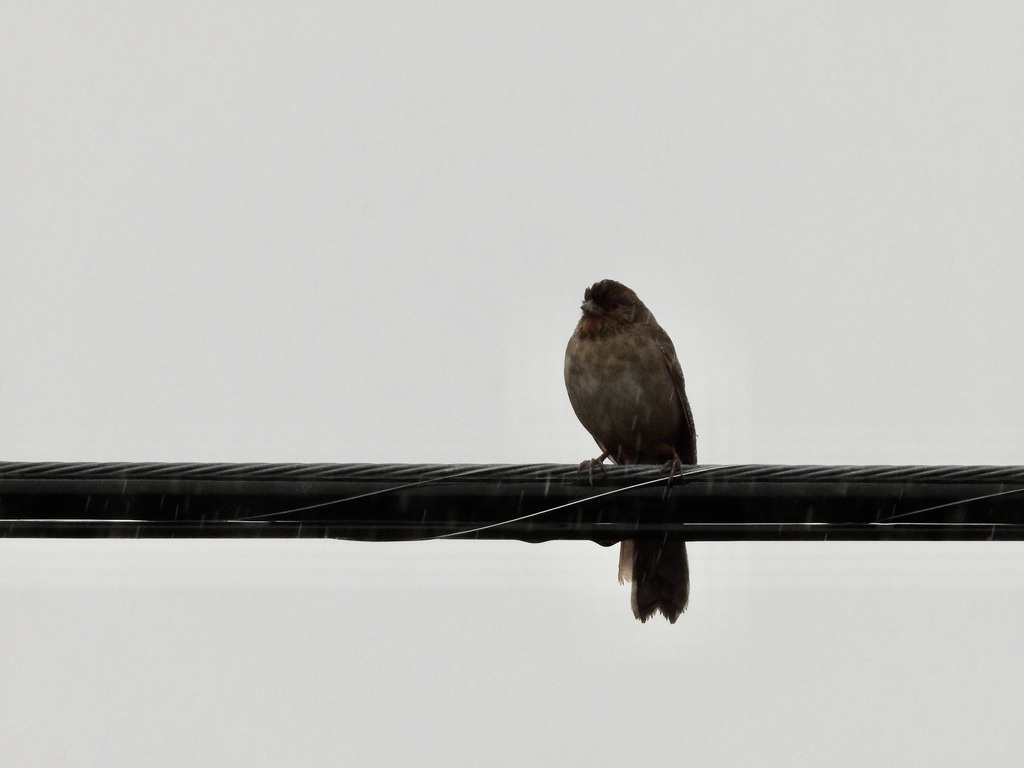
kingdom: Animalia
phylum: Chordata
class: Aves
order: Passeriformes
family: Passerellidae
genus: Melozone
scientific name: Melozone crissalis
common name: California towhee
